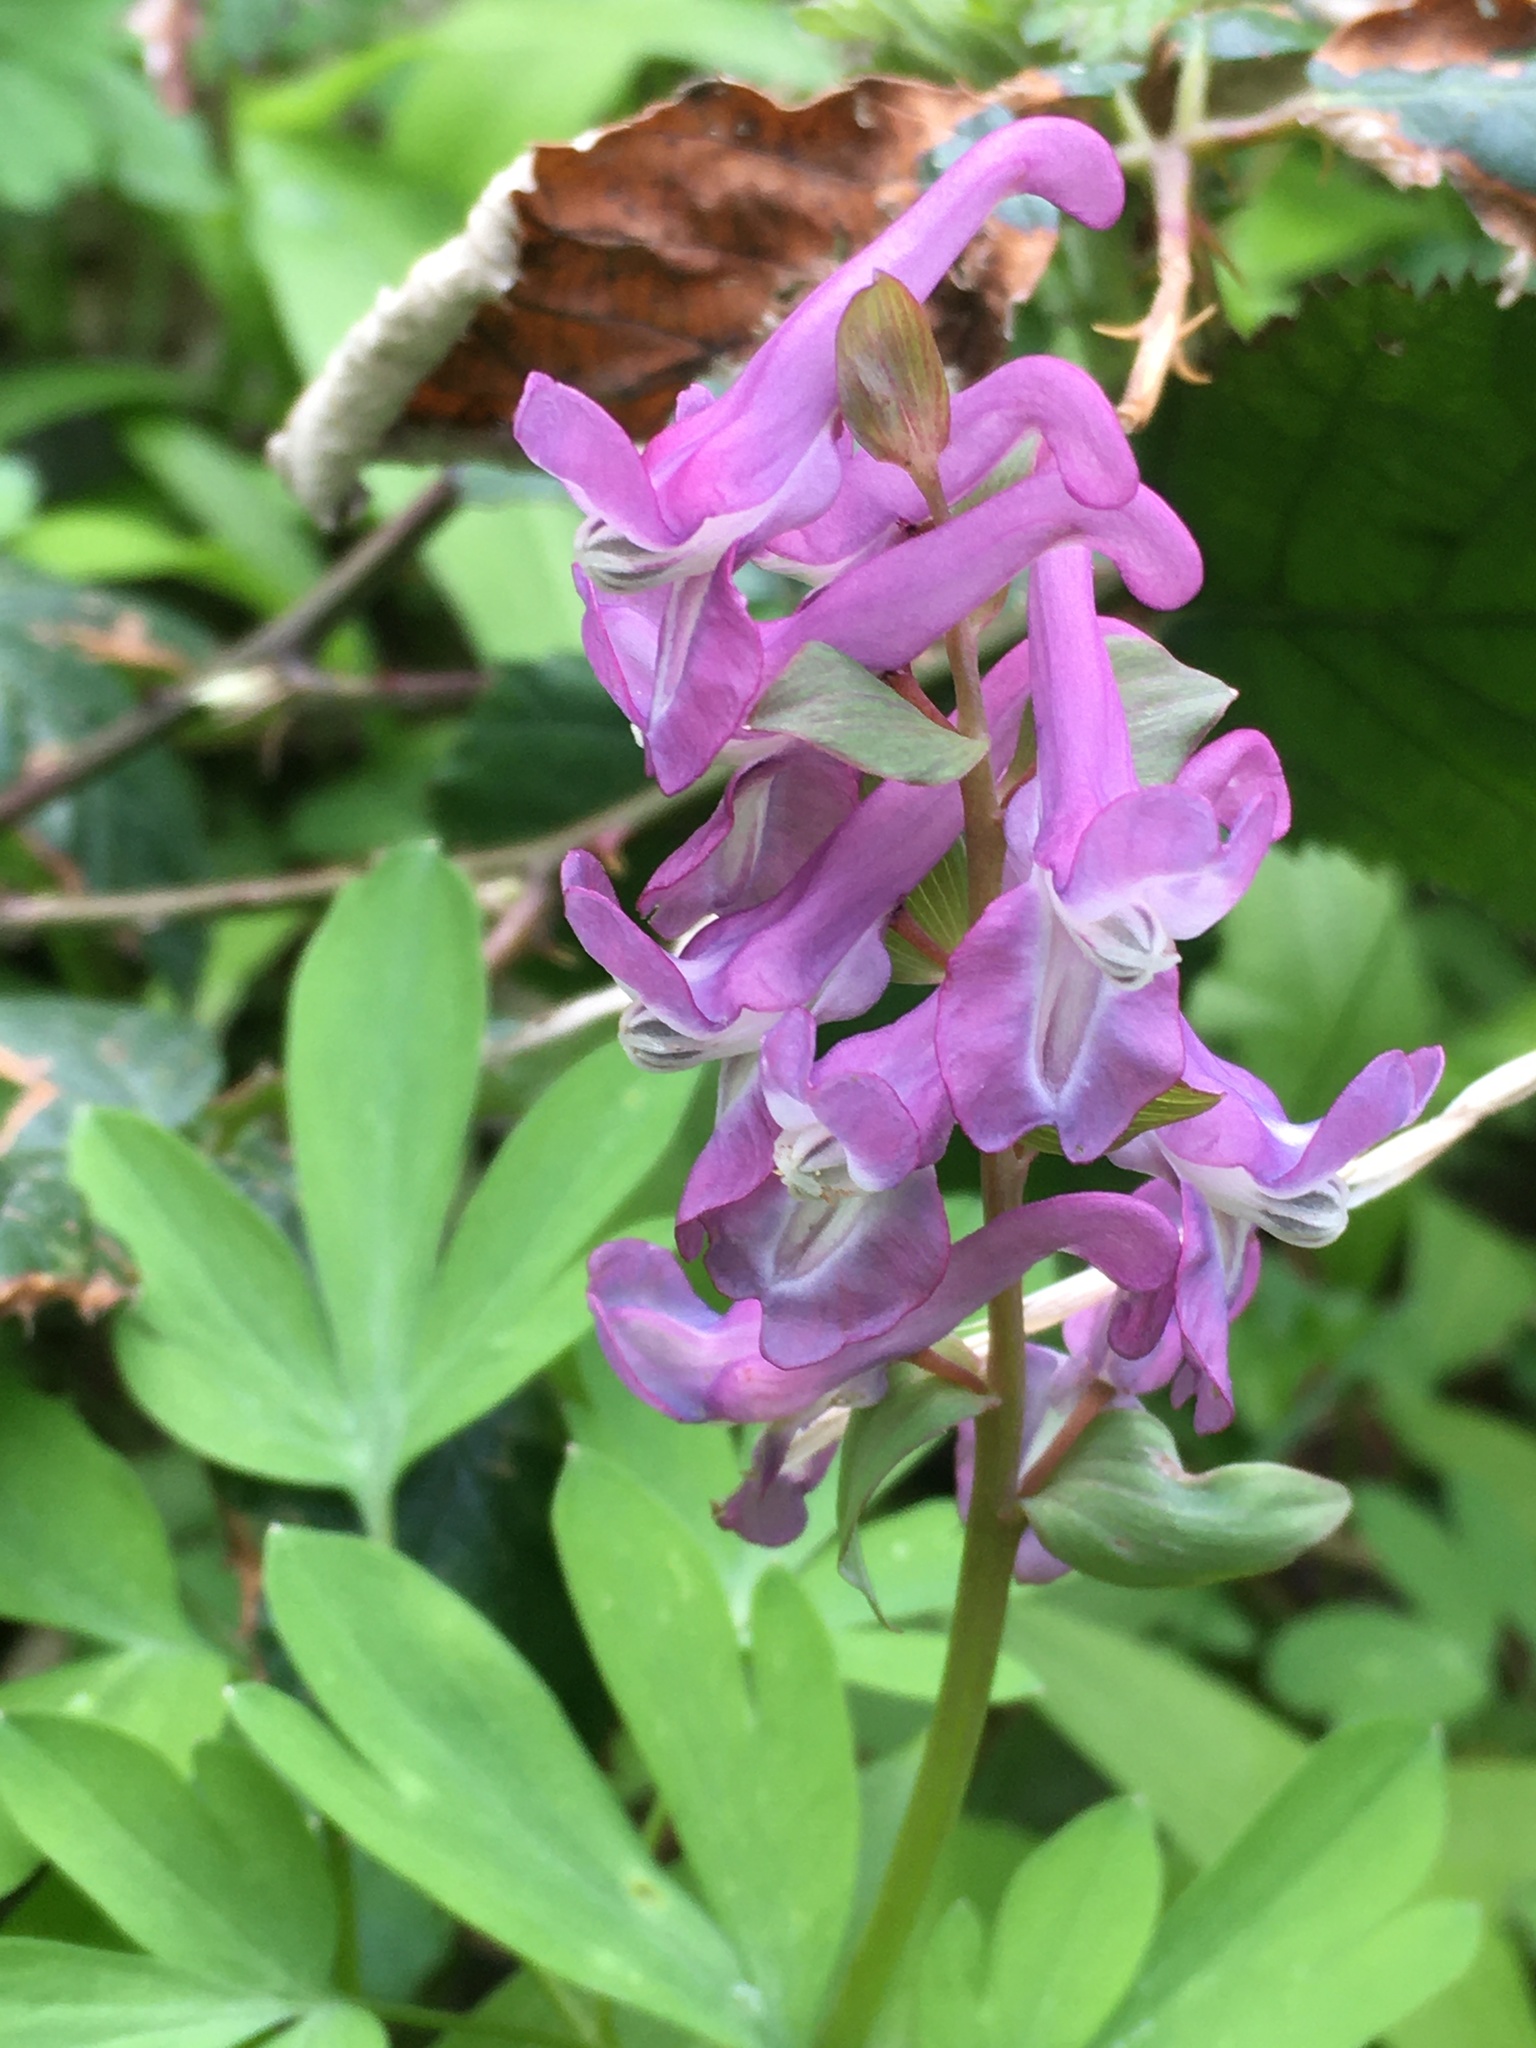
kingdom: Plantae
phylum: Tracheophyta
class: Magnoliopsida
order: Ranunculales
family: Papaveraceae
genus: Corydalis
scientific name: Corydalis cava
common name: Hollowroot
